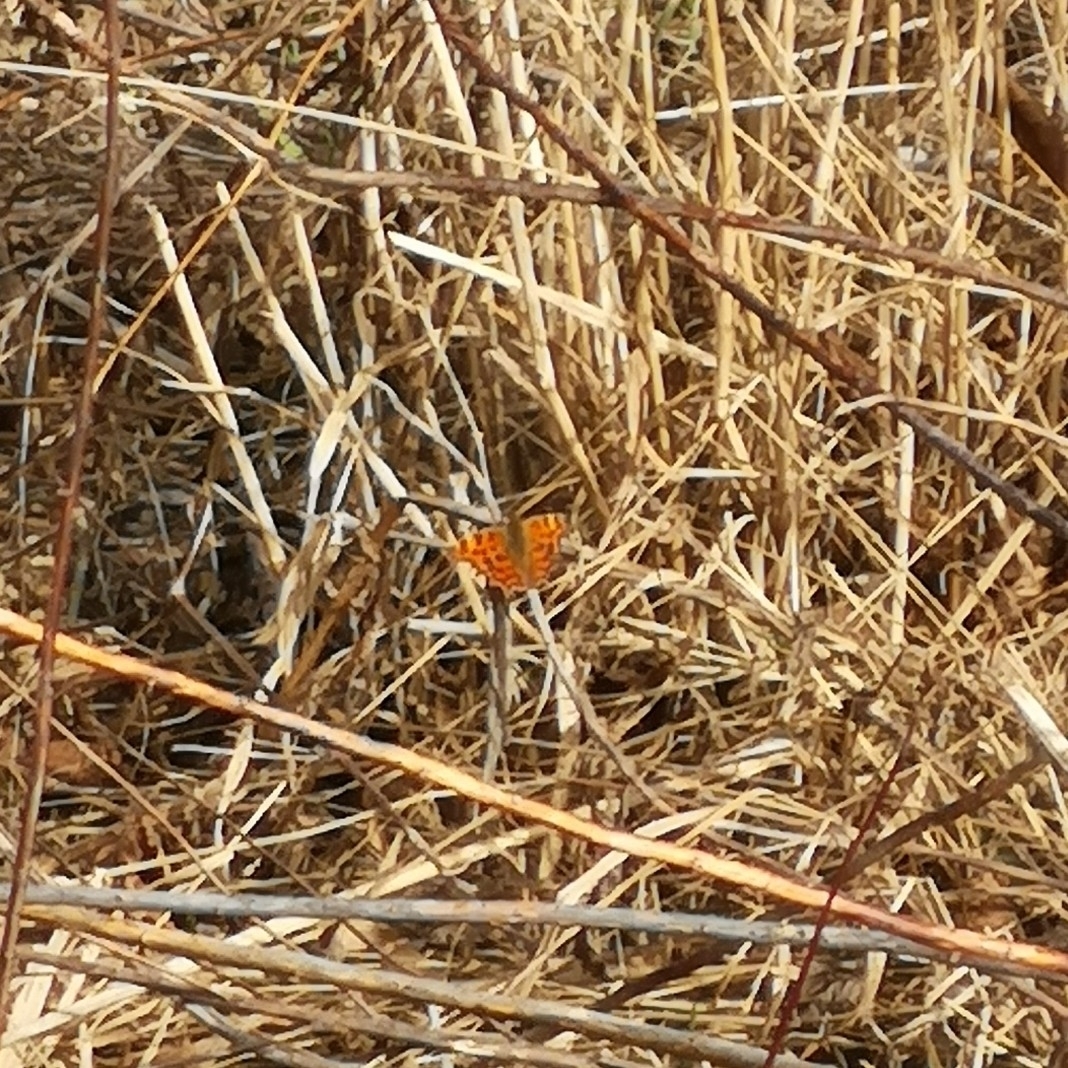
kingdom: Animalia
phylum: Arthropoda
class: Insecta
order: Lepidoptera
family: Nymphalidae
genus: Polygonia
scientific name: Polygonia c-album
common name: Comma
